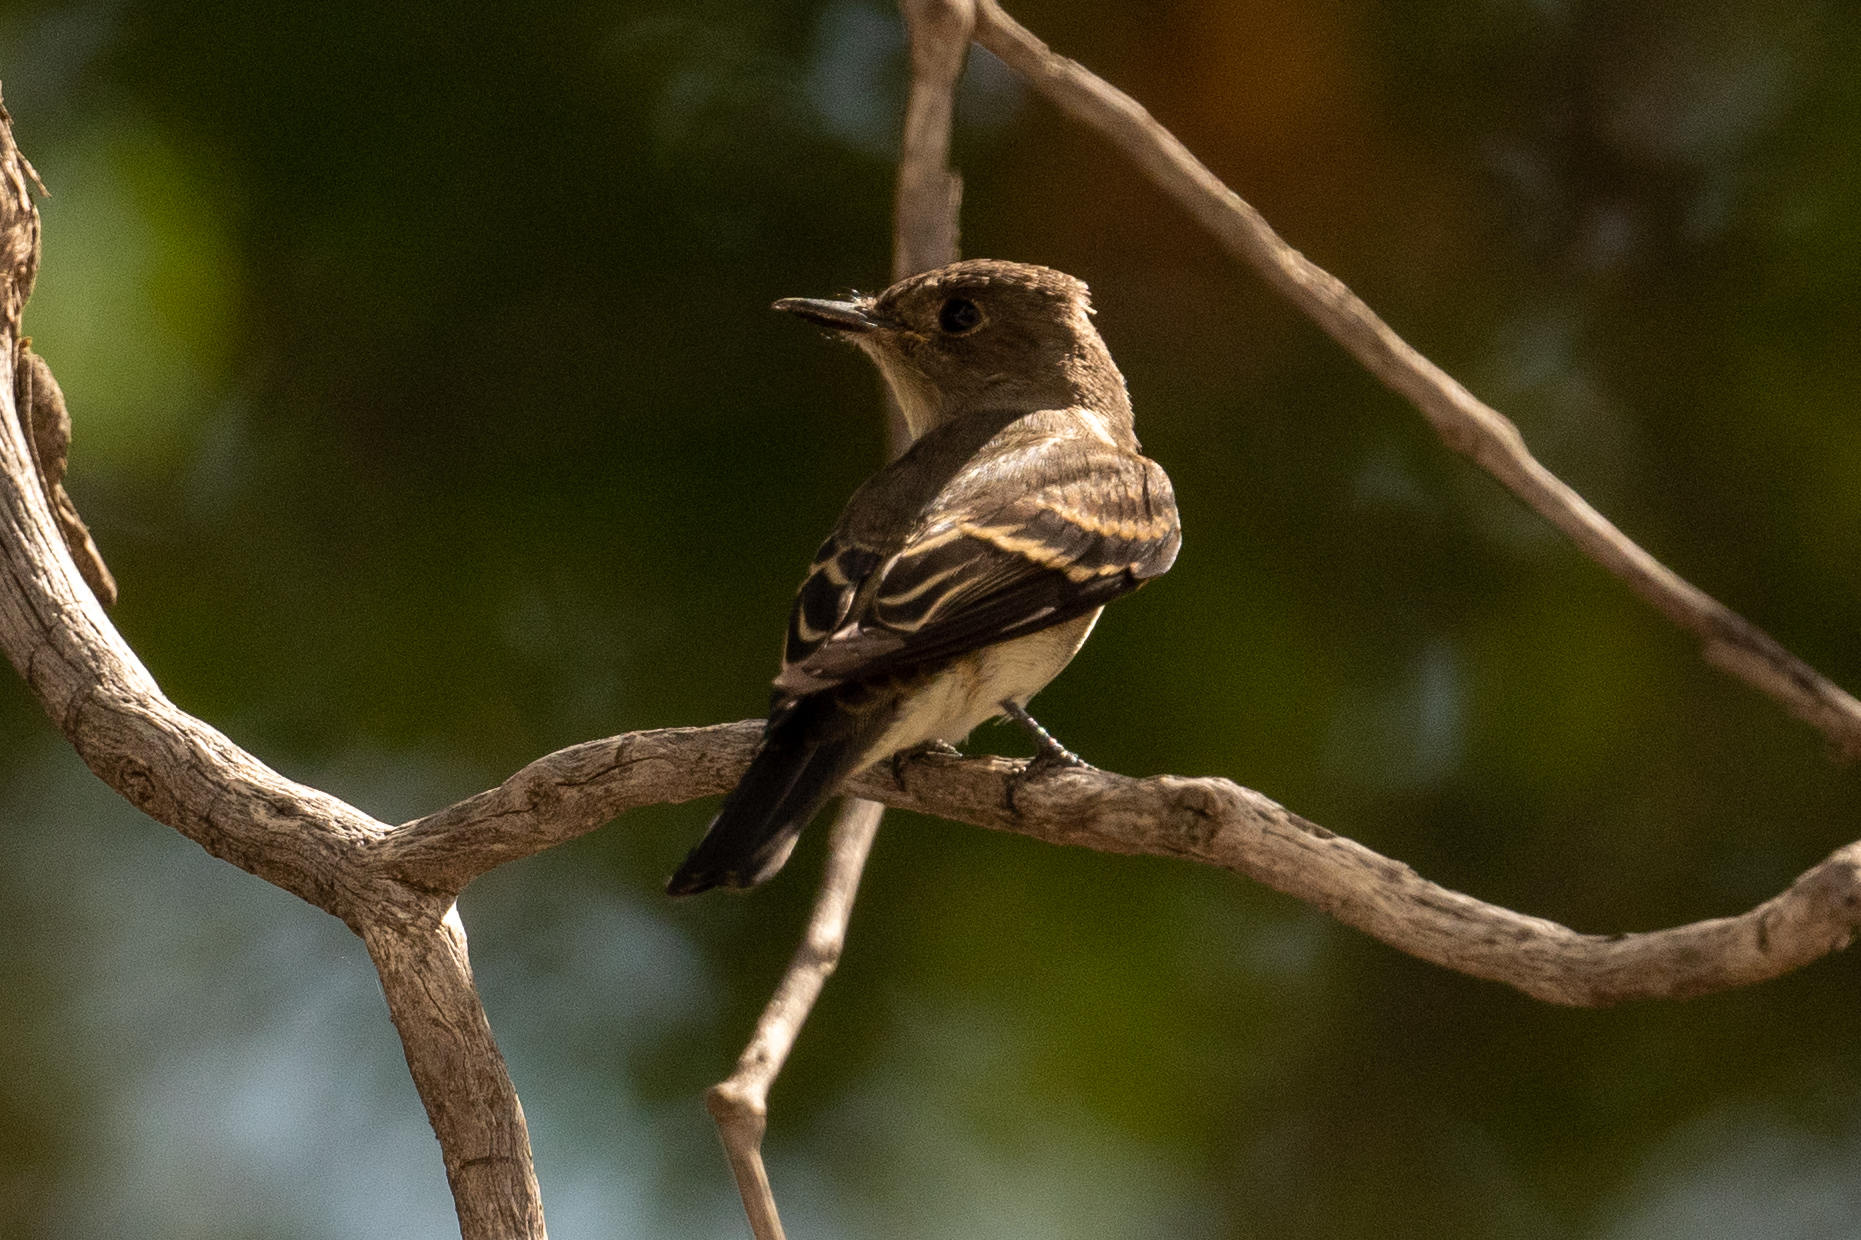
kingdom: Animalia
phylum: Chordata
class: Aves
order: Passeriformes
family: Tyrannidae
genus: Contopus
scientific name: Contopus sordidulus
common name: Western wood-pewee
